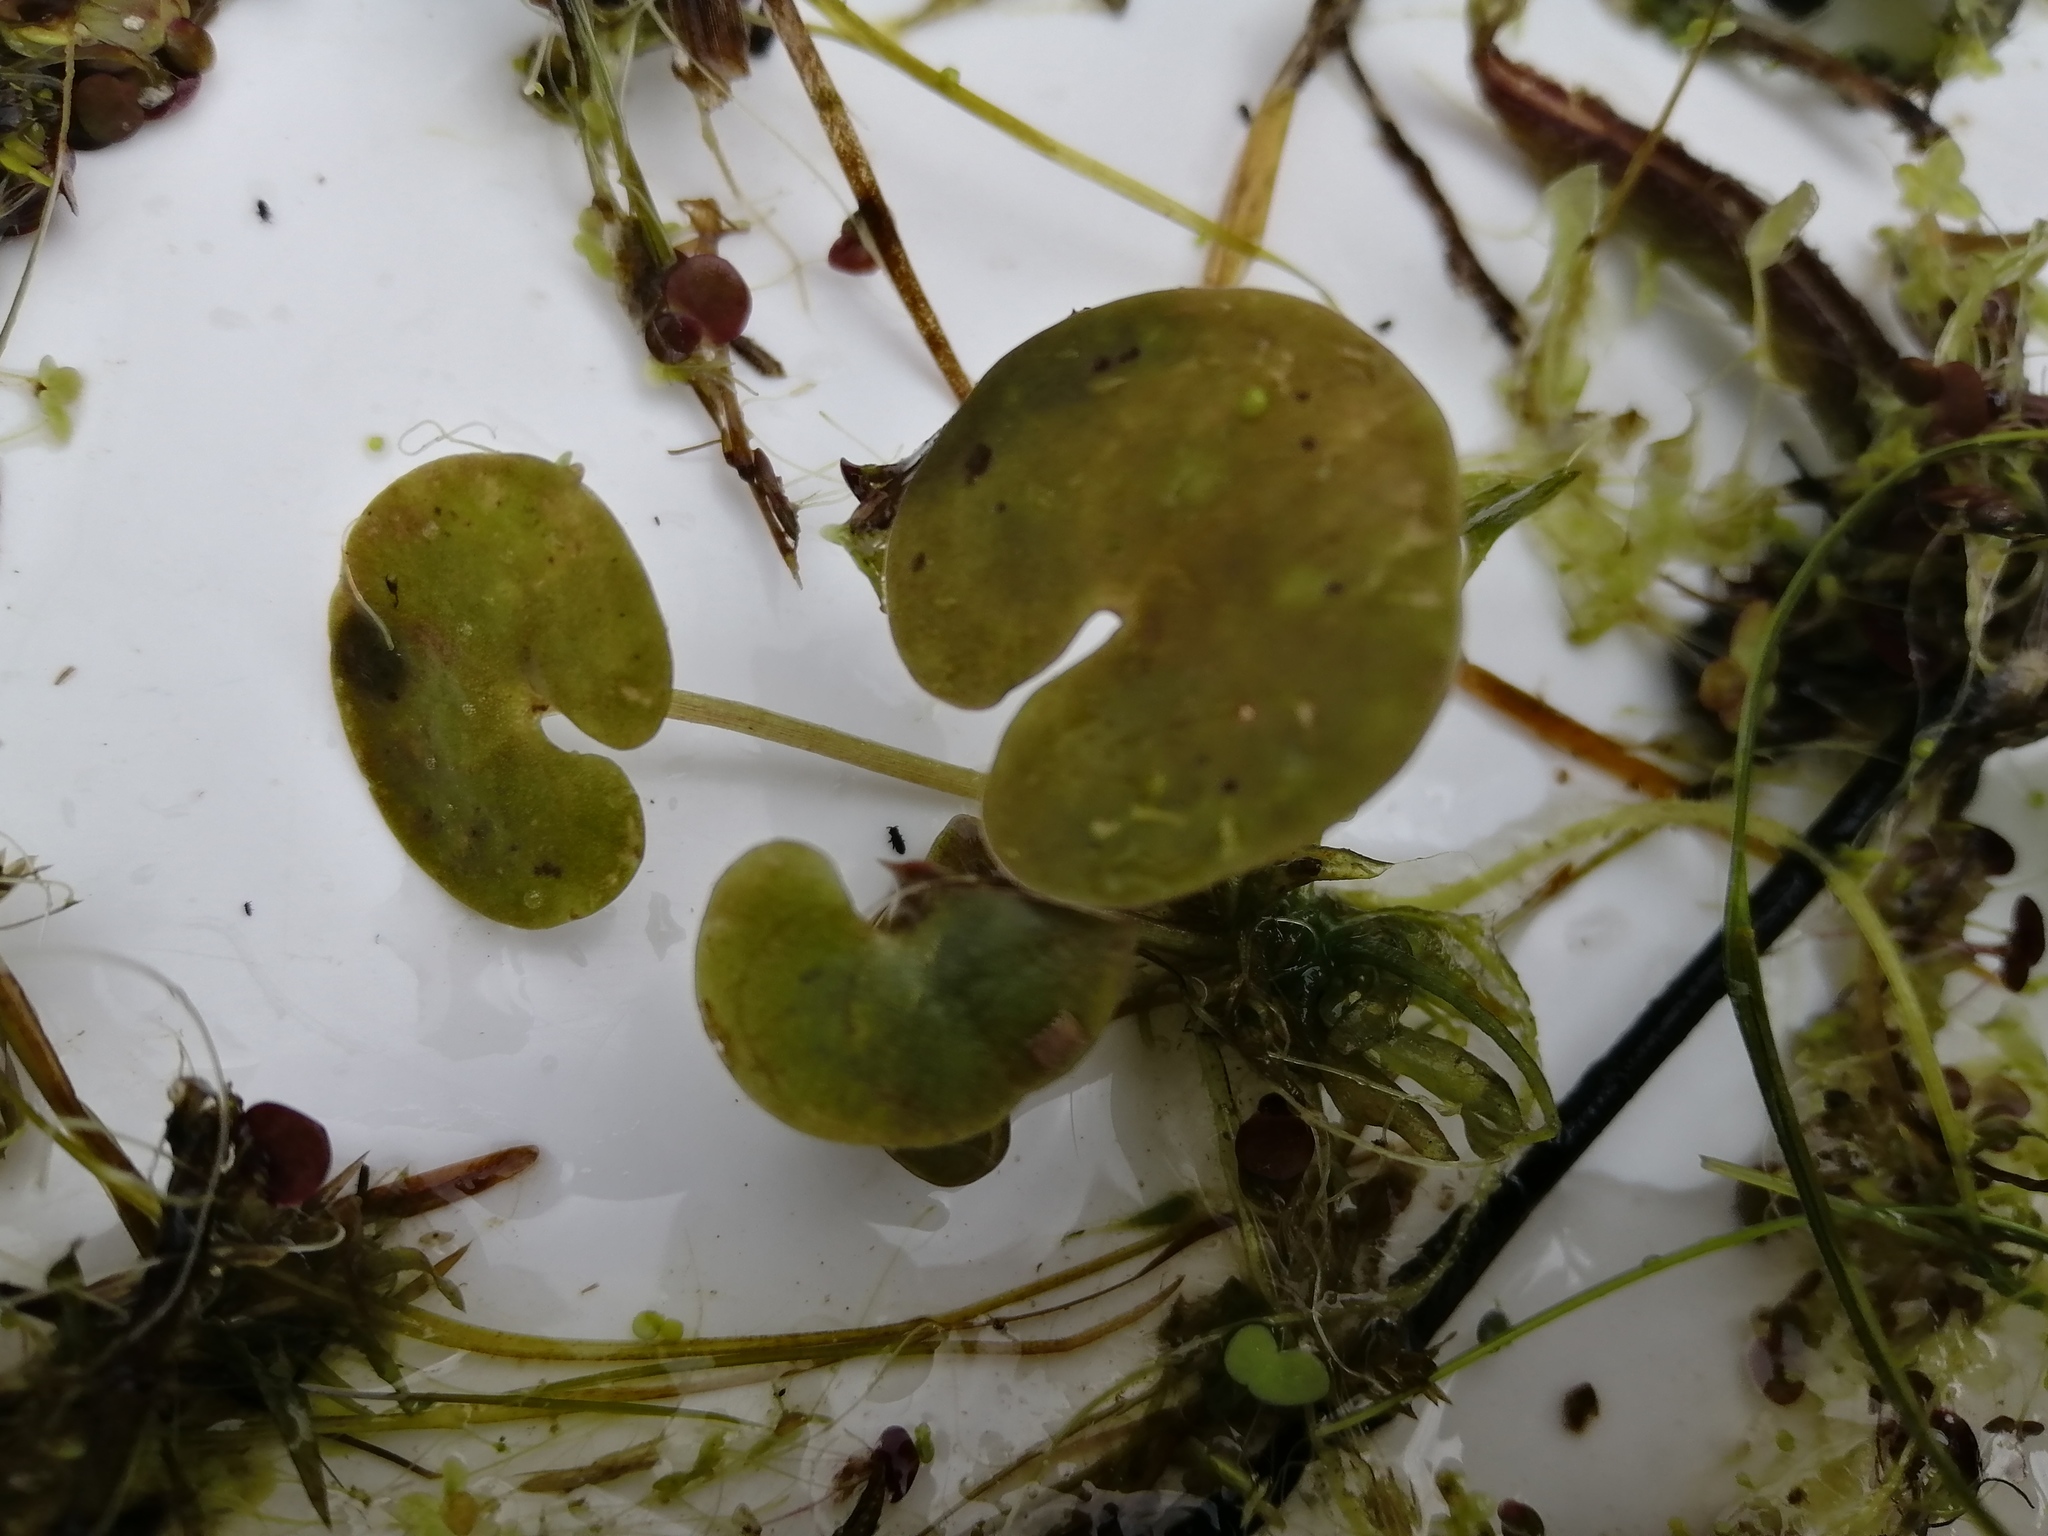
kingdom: Plantae
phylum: Tracheophyta
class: Liliopsida
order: Alismatales
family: Hydrocharitaceae
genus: Hydrocharis
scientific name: Hydrocharis morsus-ranae
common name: Frogbit
